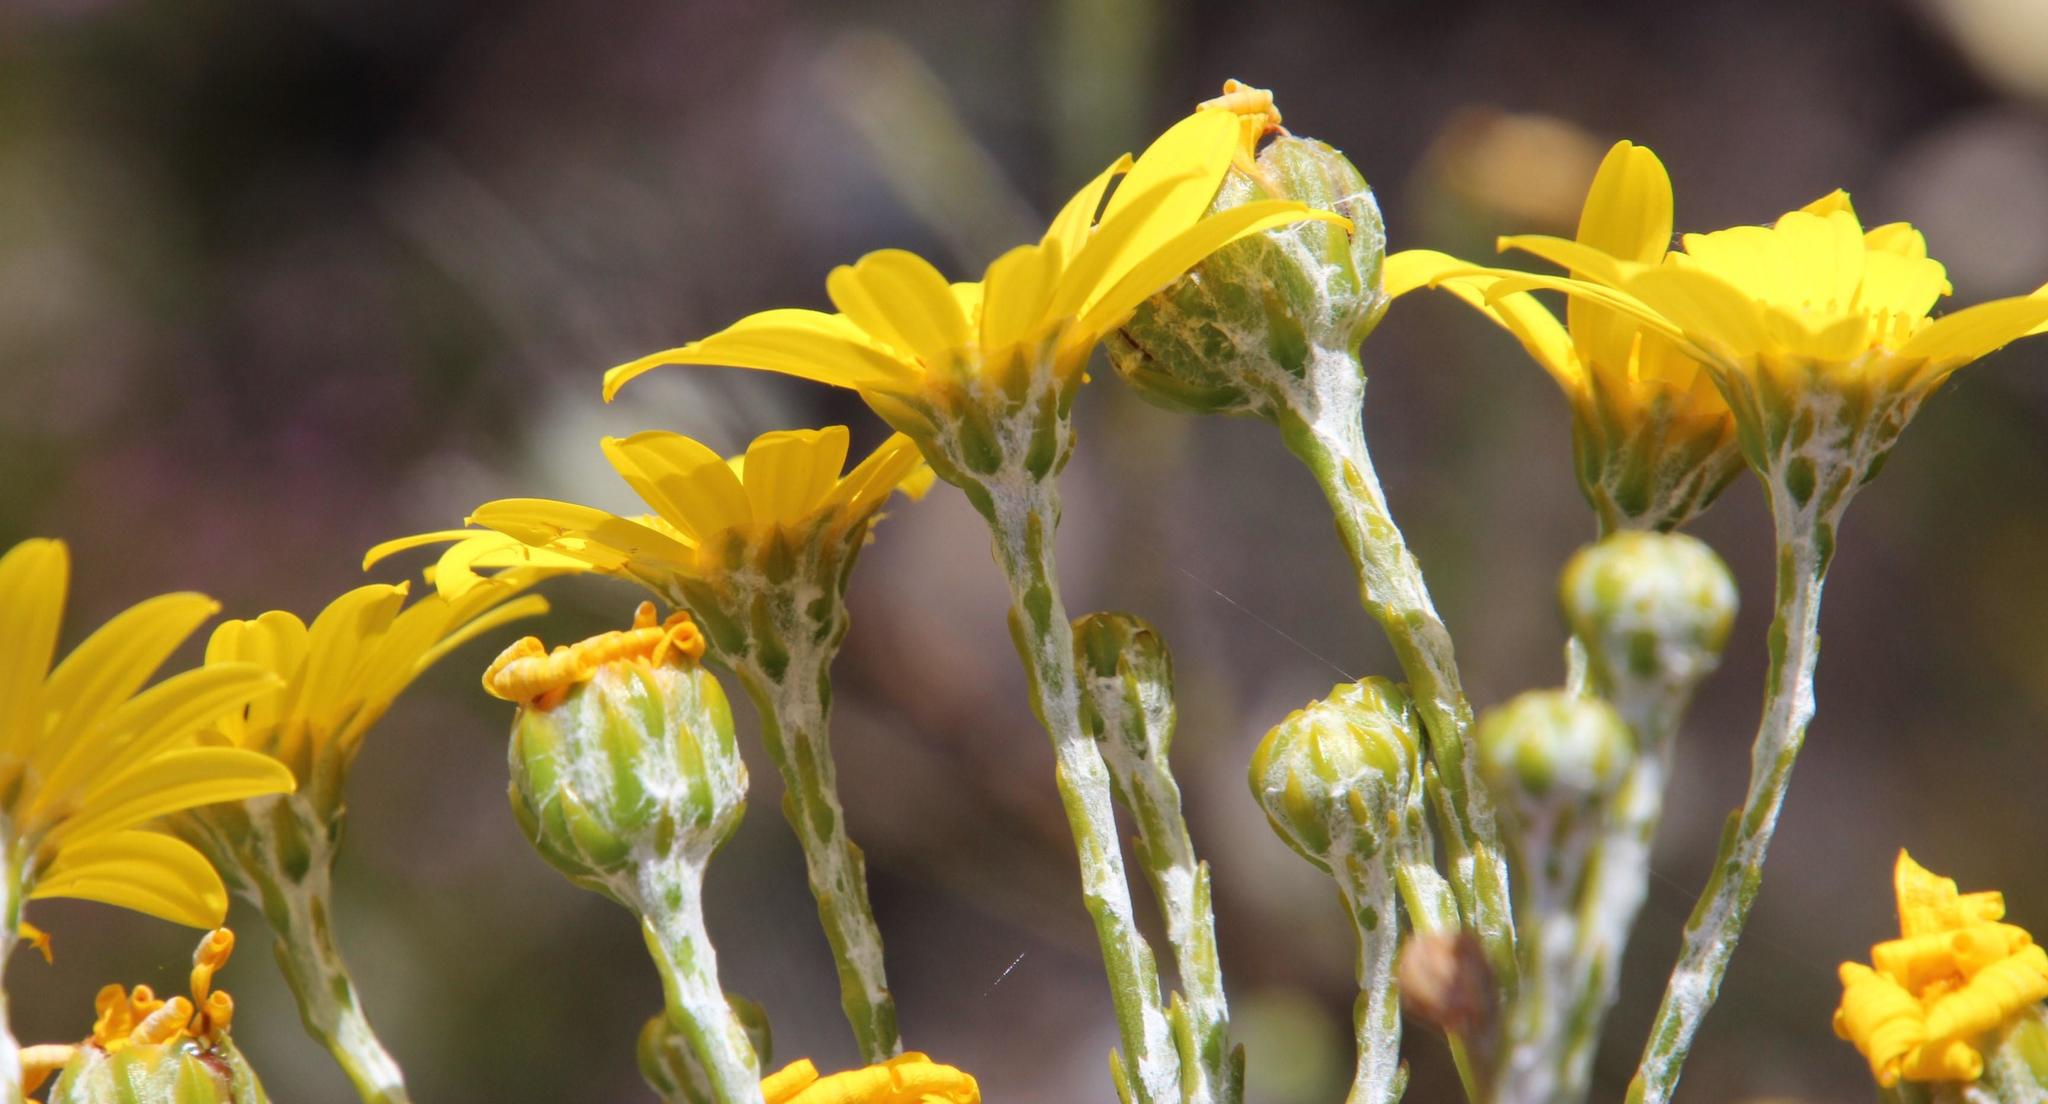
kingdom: Plantae
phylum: Tracheophyta
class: Magnoliopsida
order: Asterales
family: Asteraceae
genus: Osteospermum
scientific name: Osteospermum junceum
